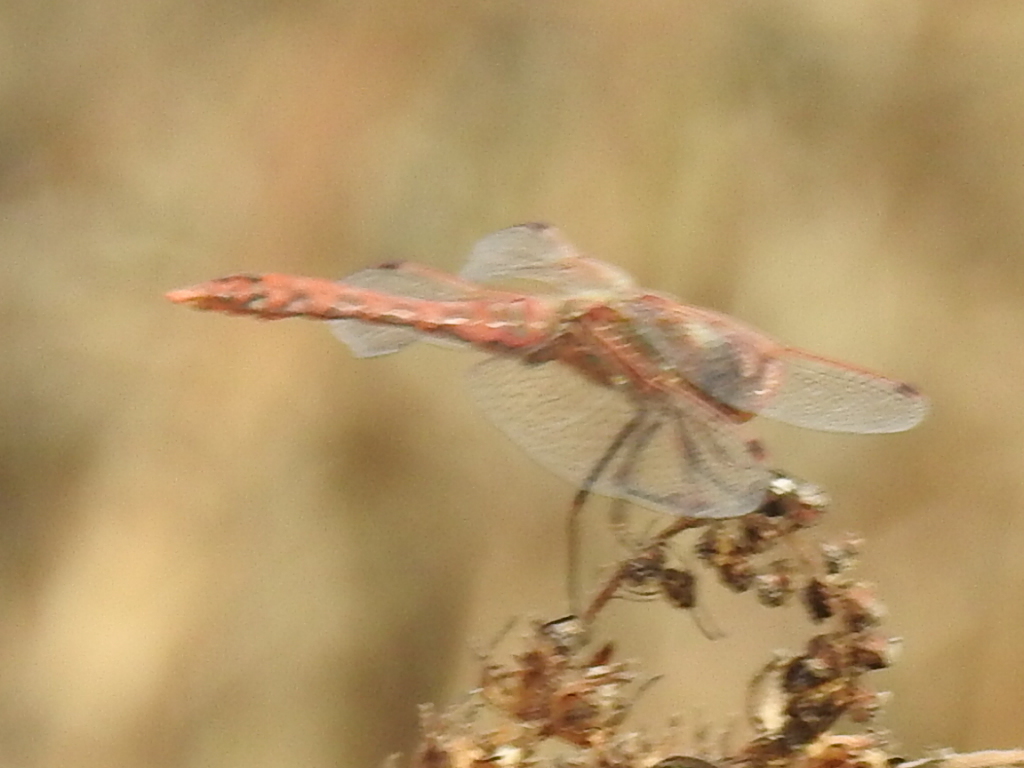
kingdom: Animalia
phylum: Arthropoda
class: Insecta
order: Odonata
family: Libellulidae
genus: Sympetrum
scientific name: Sympetrum corruptum
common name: Variegated meadowhawk
